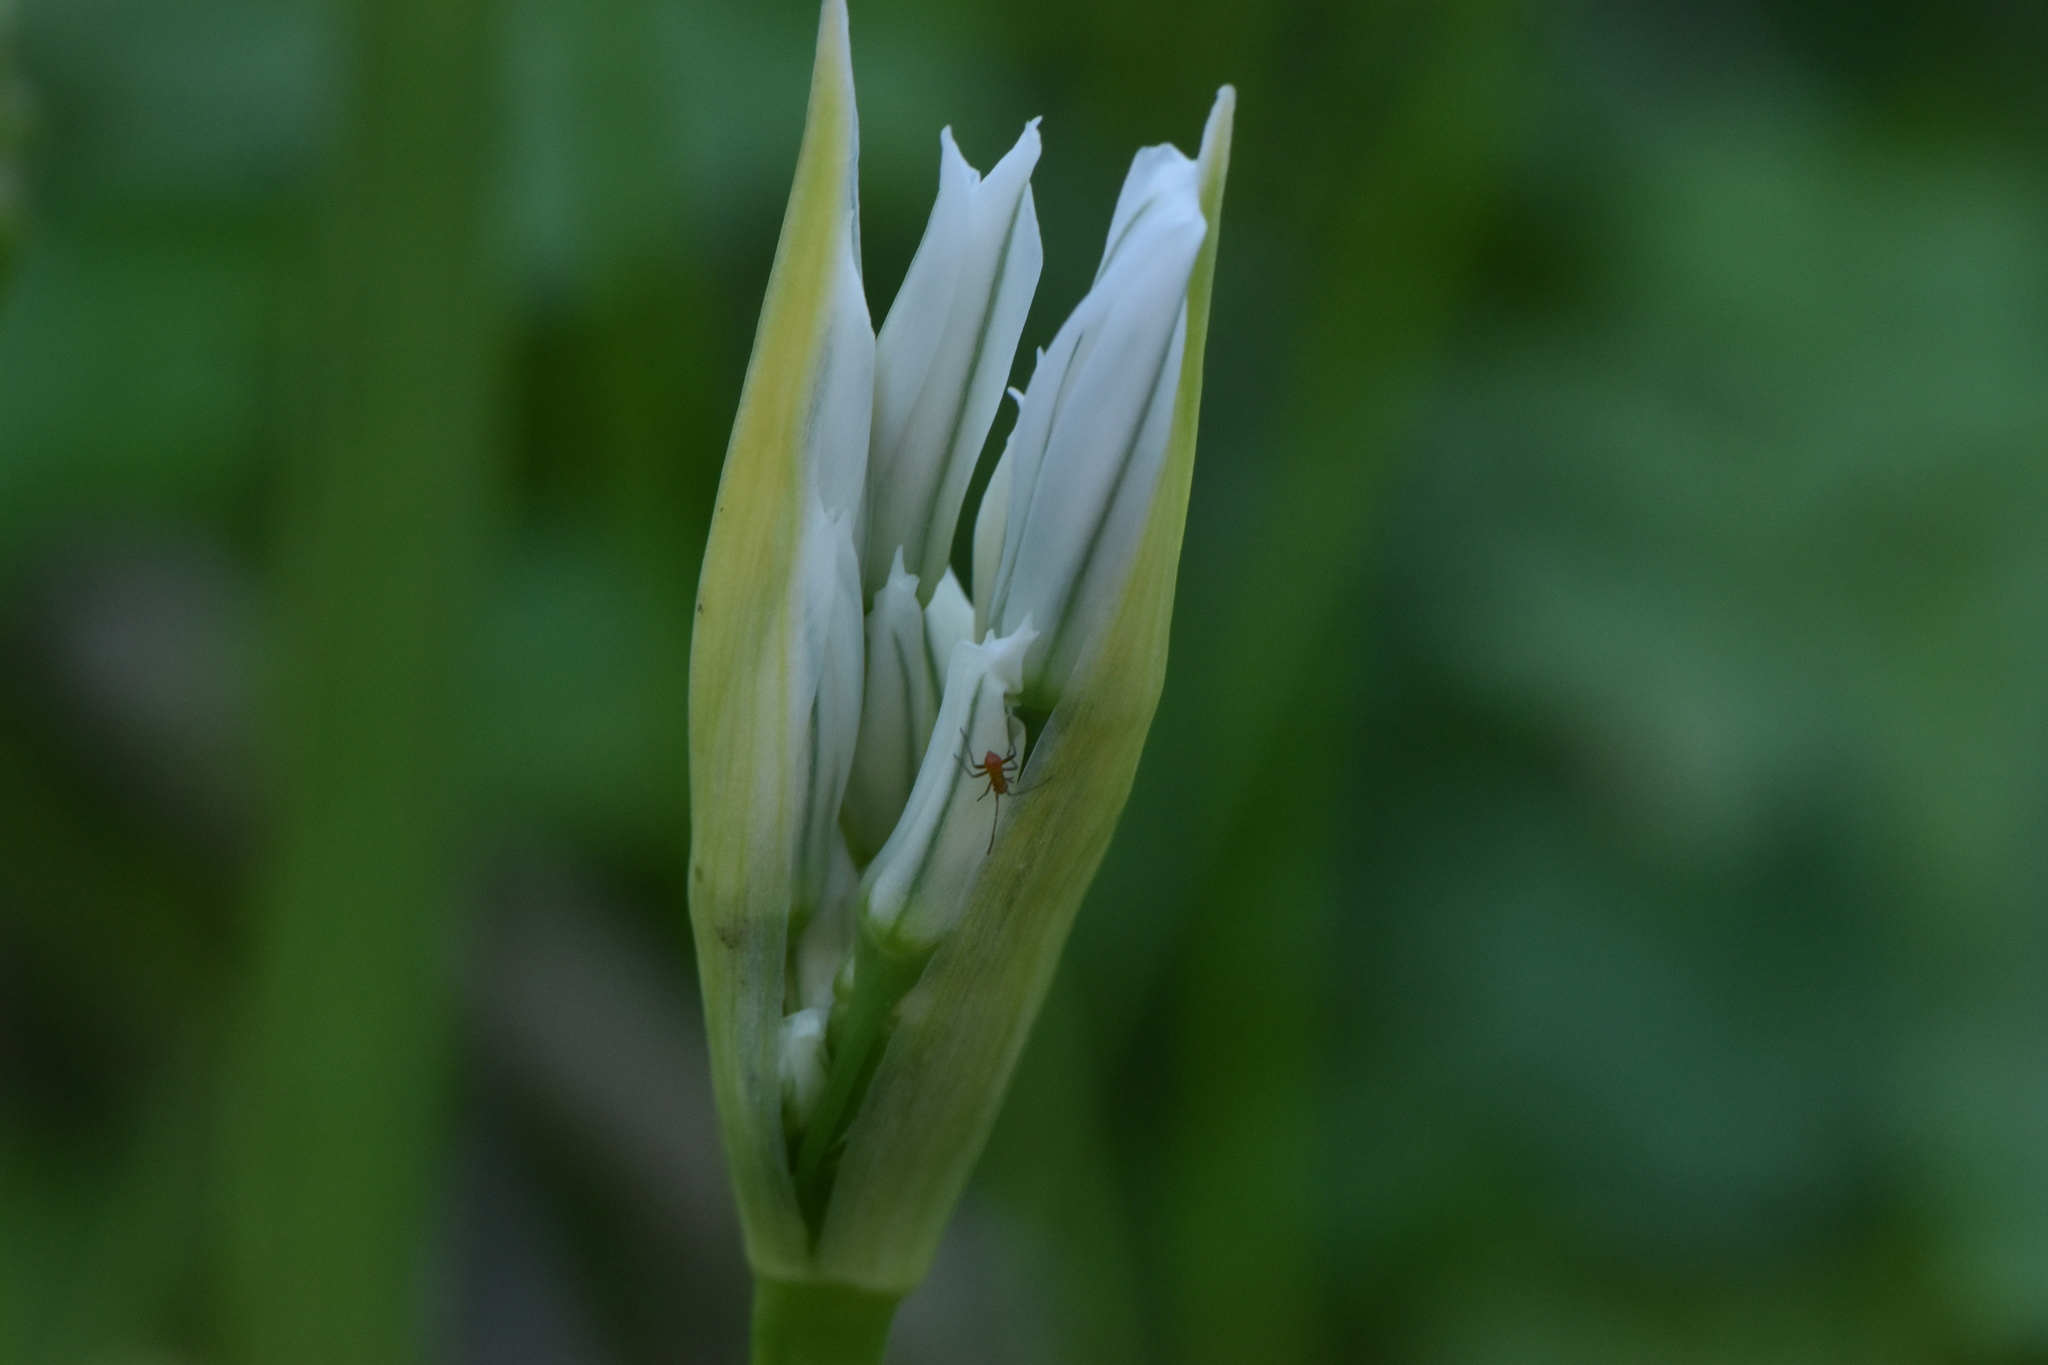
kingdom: Plantae
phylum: Tracheophyta
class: Liliopsida
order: Asparagales
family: Amaryllidaceae
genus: Allium
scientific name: Allium triquetrum
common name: Three-cornered garlic
